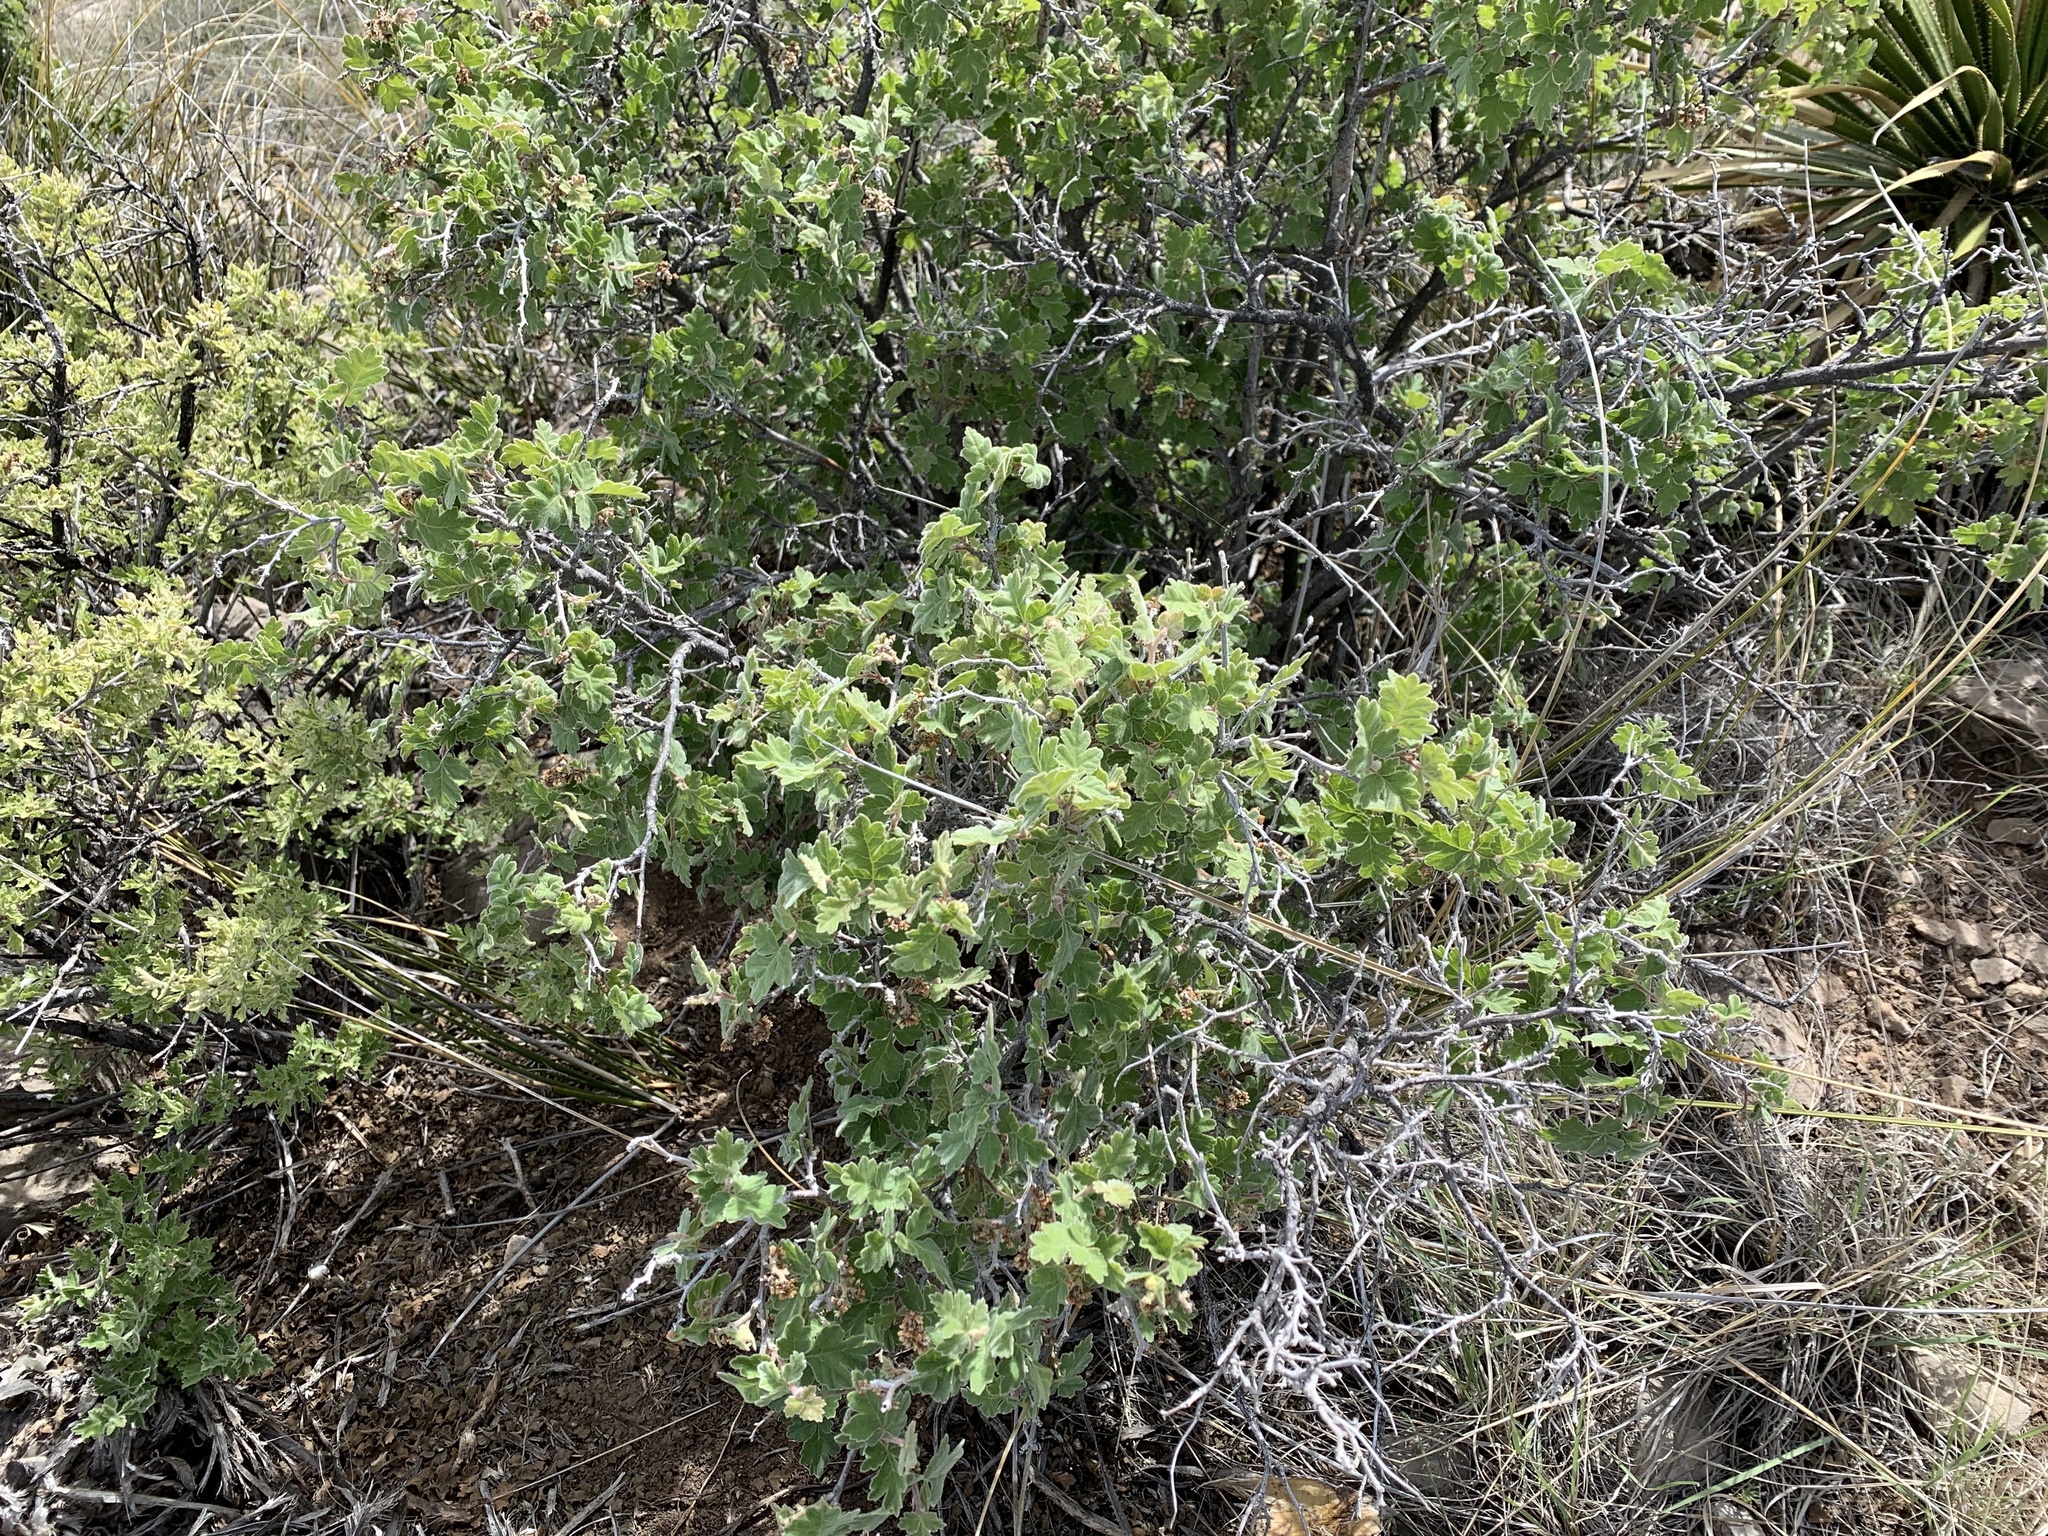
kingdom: Plantae
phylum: Tracheophyta
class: Magnoliopsida
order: Sapindales
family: Anacardiaceae
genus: Rhus
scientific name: Rhus aromatica
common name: Aromatic sumac
